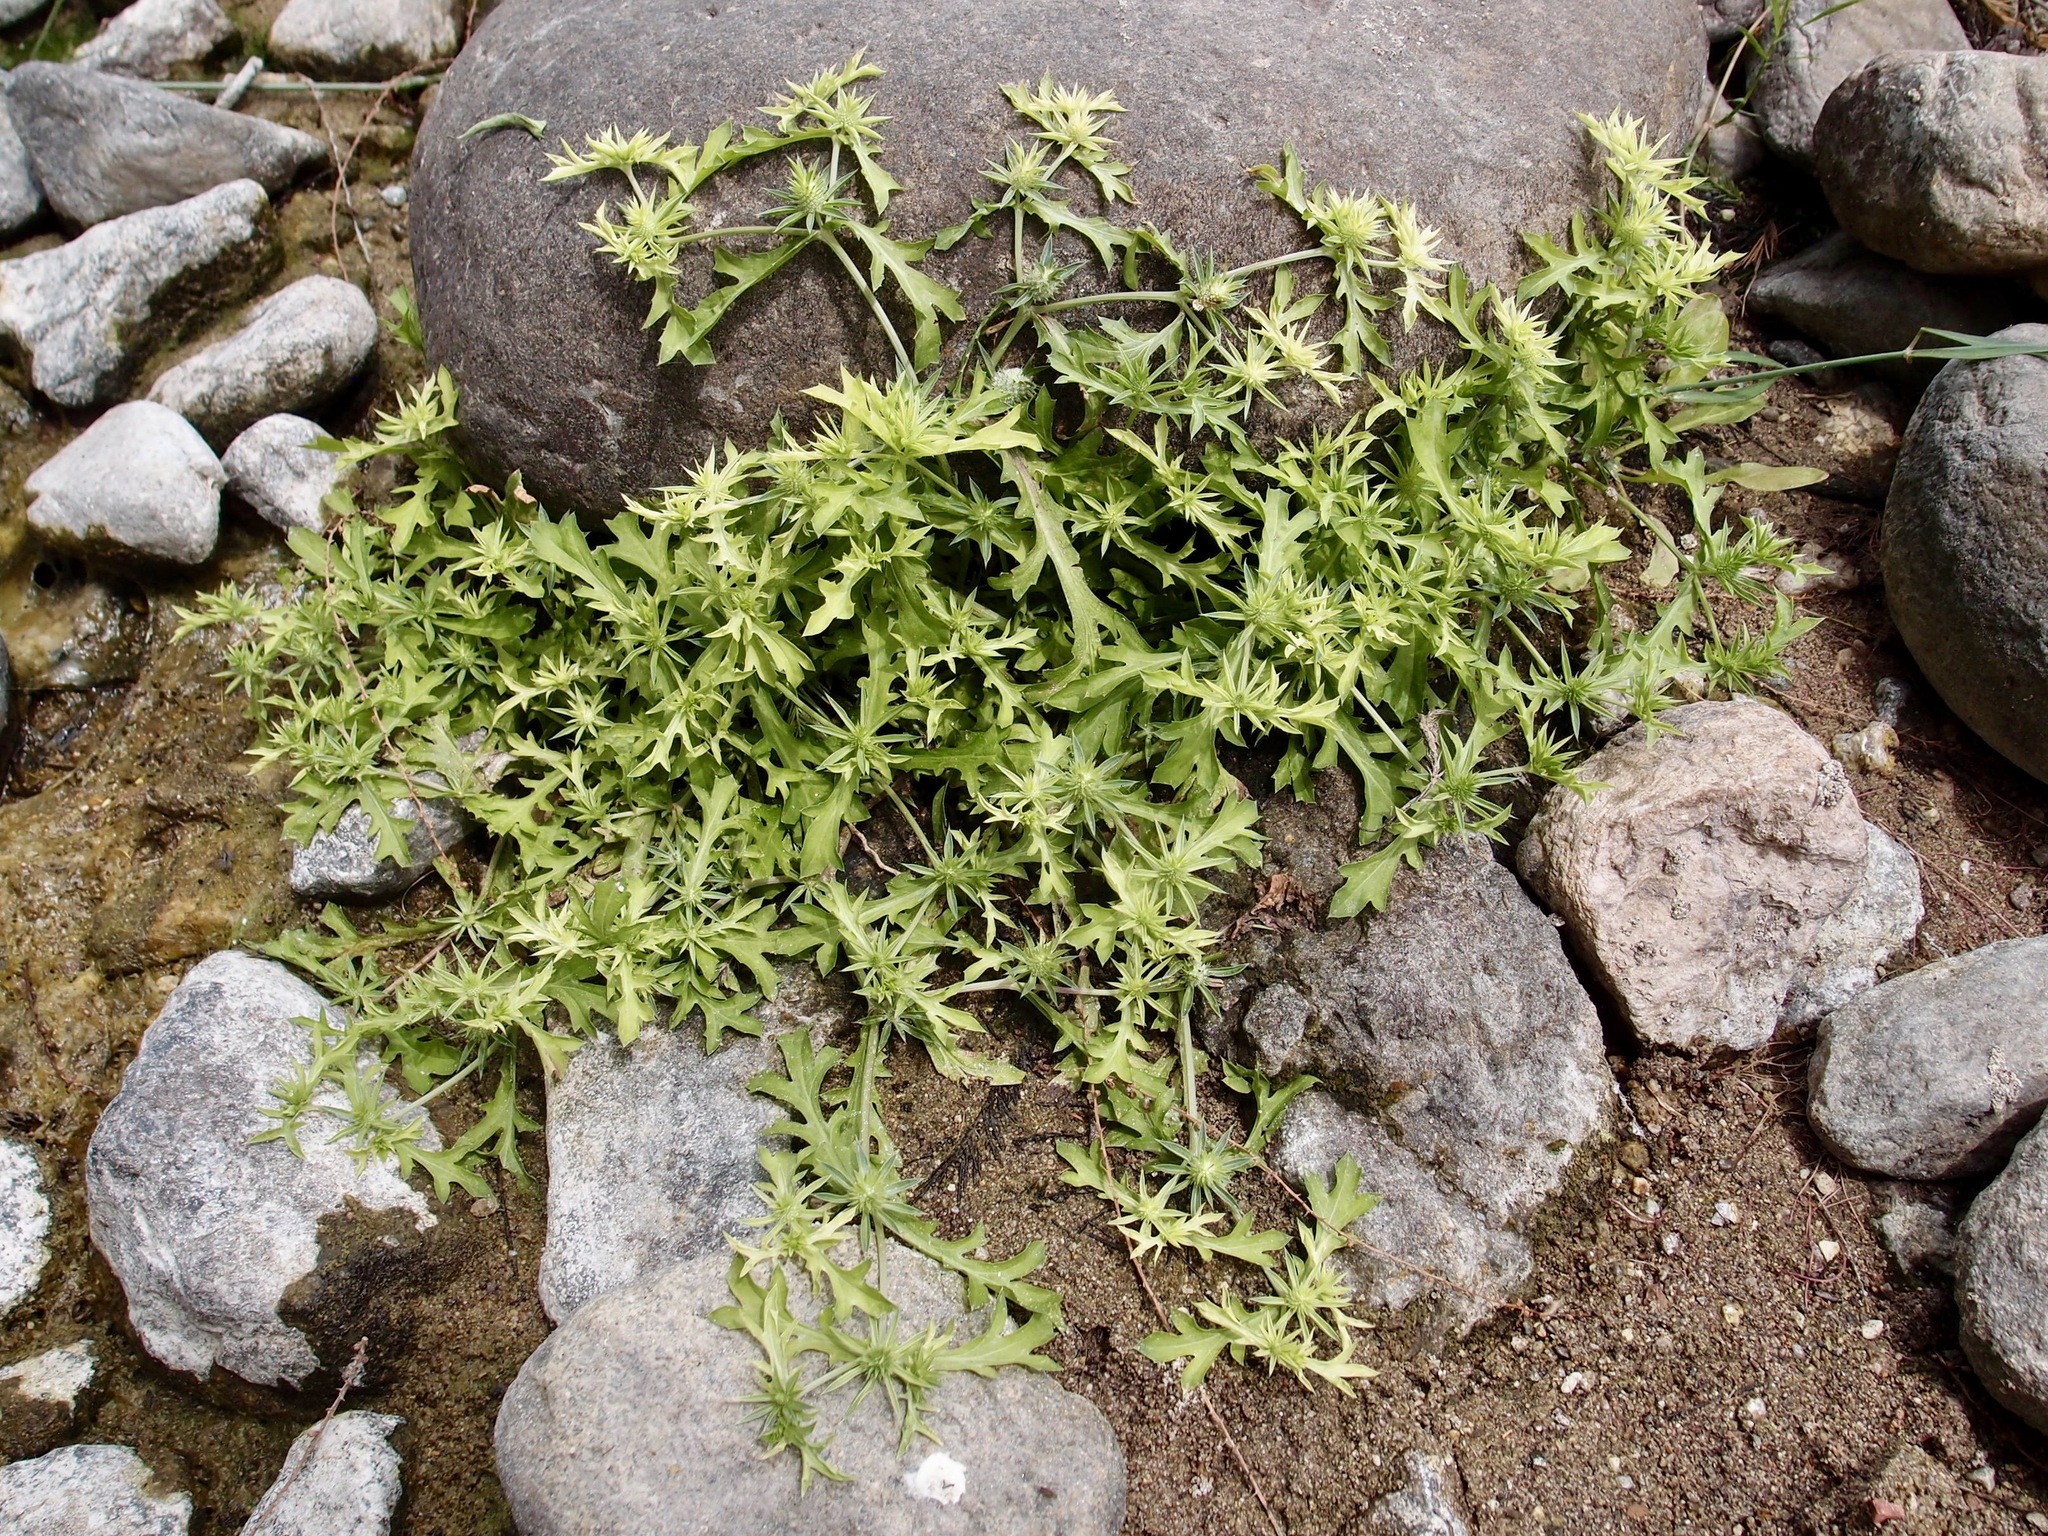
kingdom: Plantae
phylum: Tracheophyta
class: Magnoliopsida
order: Apiales
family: Apiaceae
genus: Eryngium
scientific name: Eryngium nasturtiifolium
